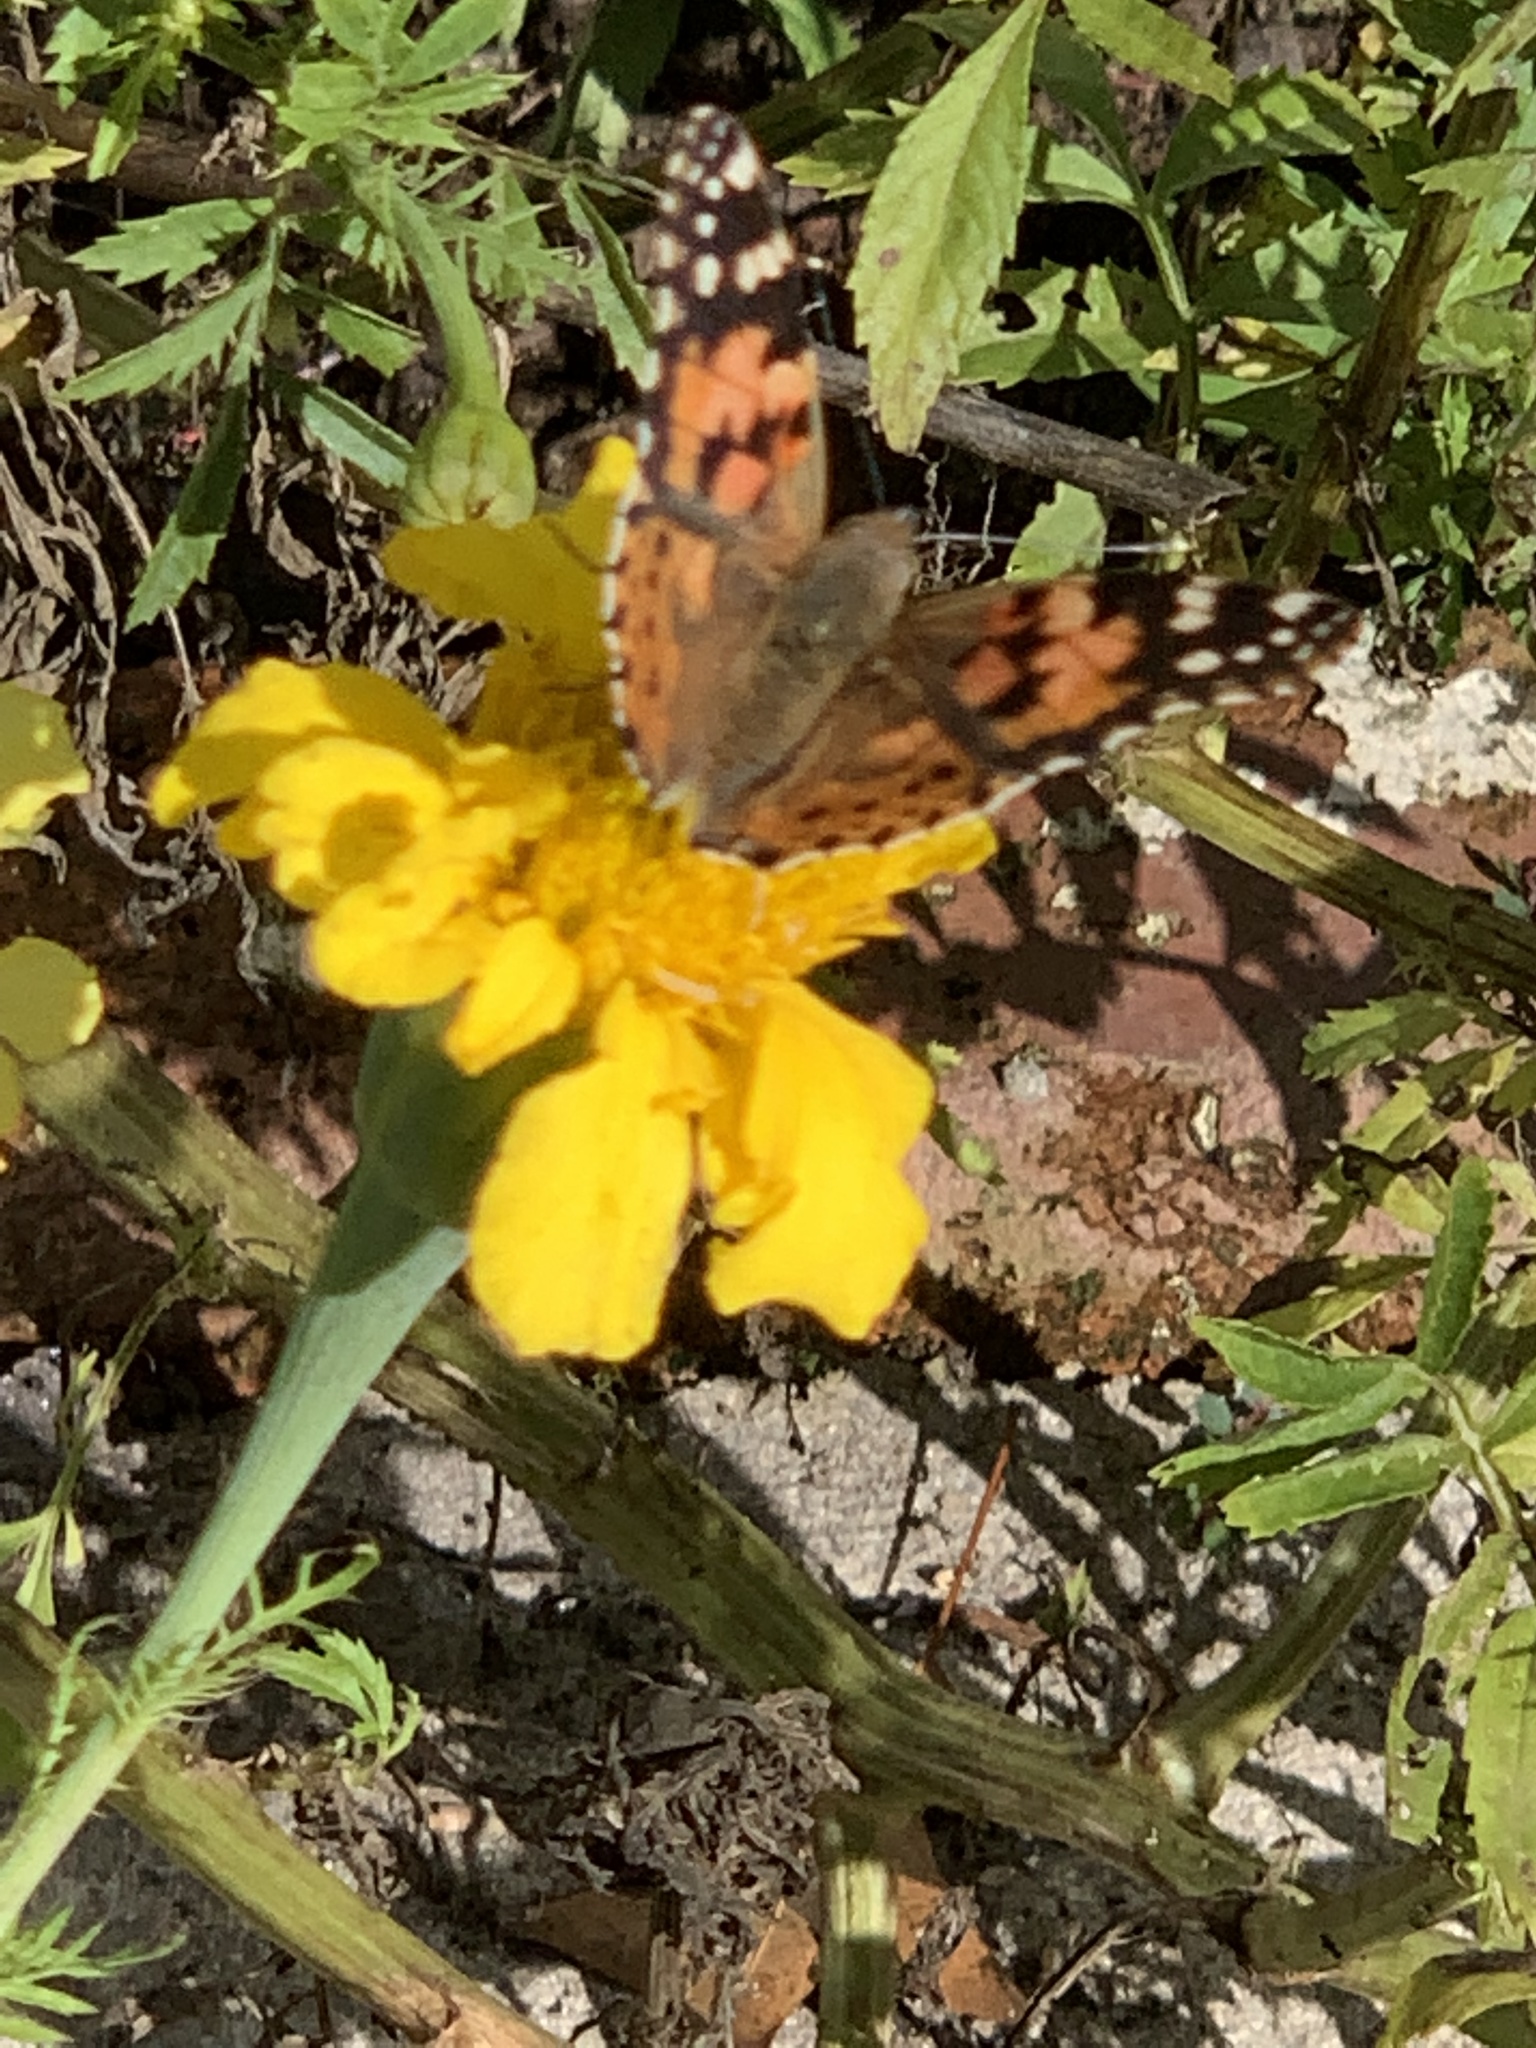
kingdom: Animalia
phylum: Arthropoda
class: Insecta
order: Lepidoptera
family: Nymphalidae
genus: Vanessa
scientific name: Vanessa cardui
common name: Painted lady
